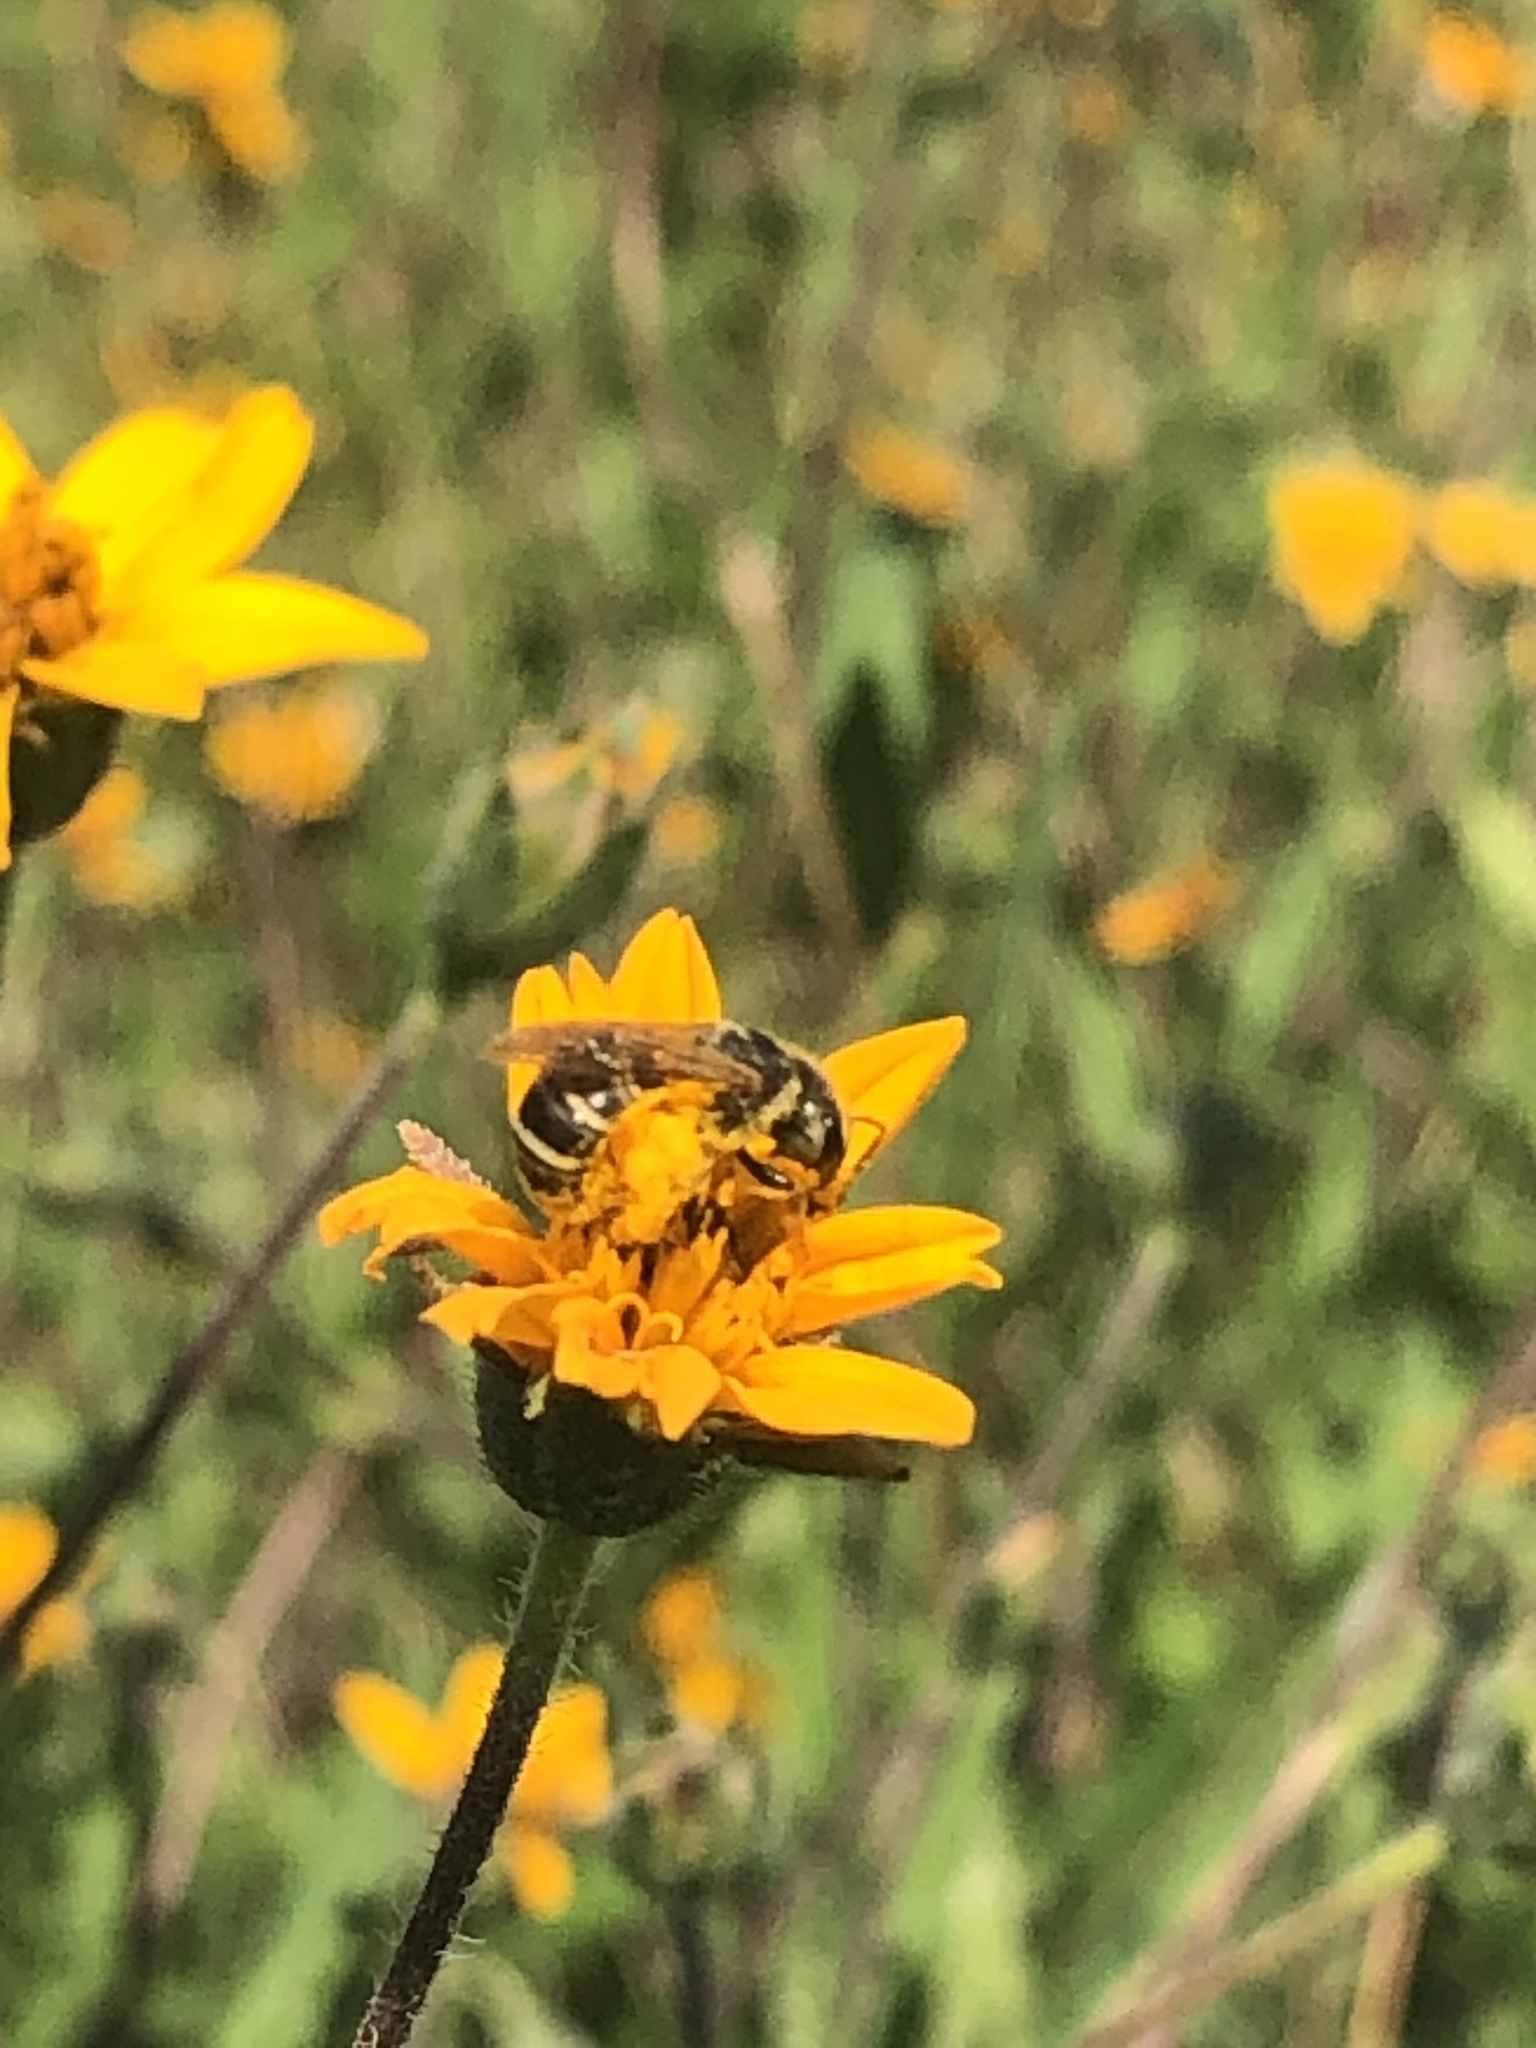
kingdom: Animalia
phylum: Arthropoda
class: Insecta
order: Hymenoptera
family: Halictidae
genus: Halictus
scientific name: Halictus ligatus
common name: Ligated furrow bee
